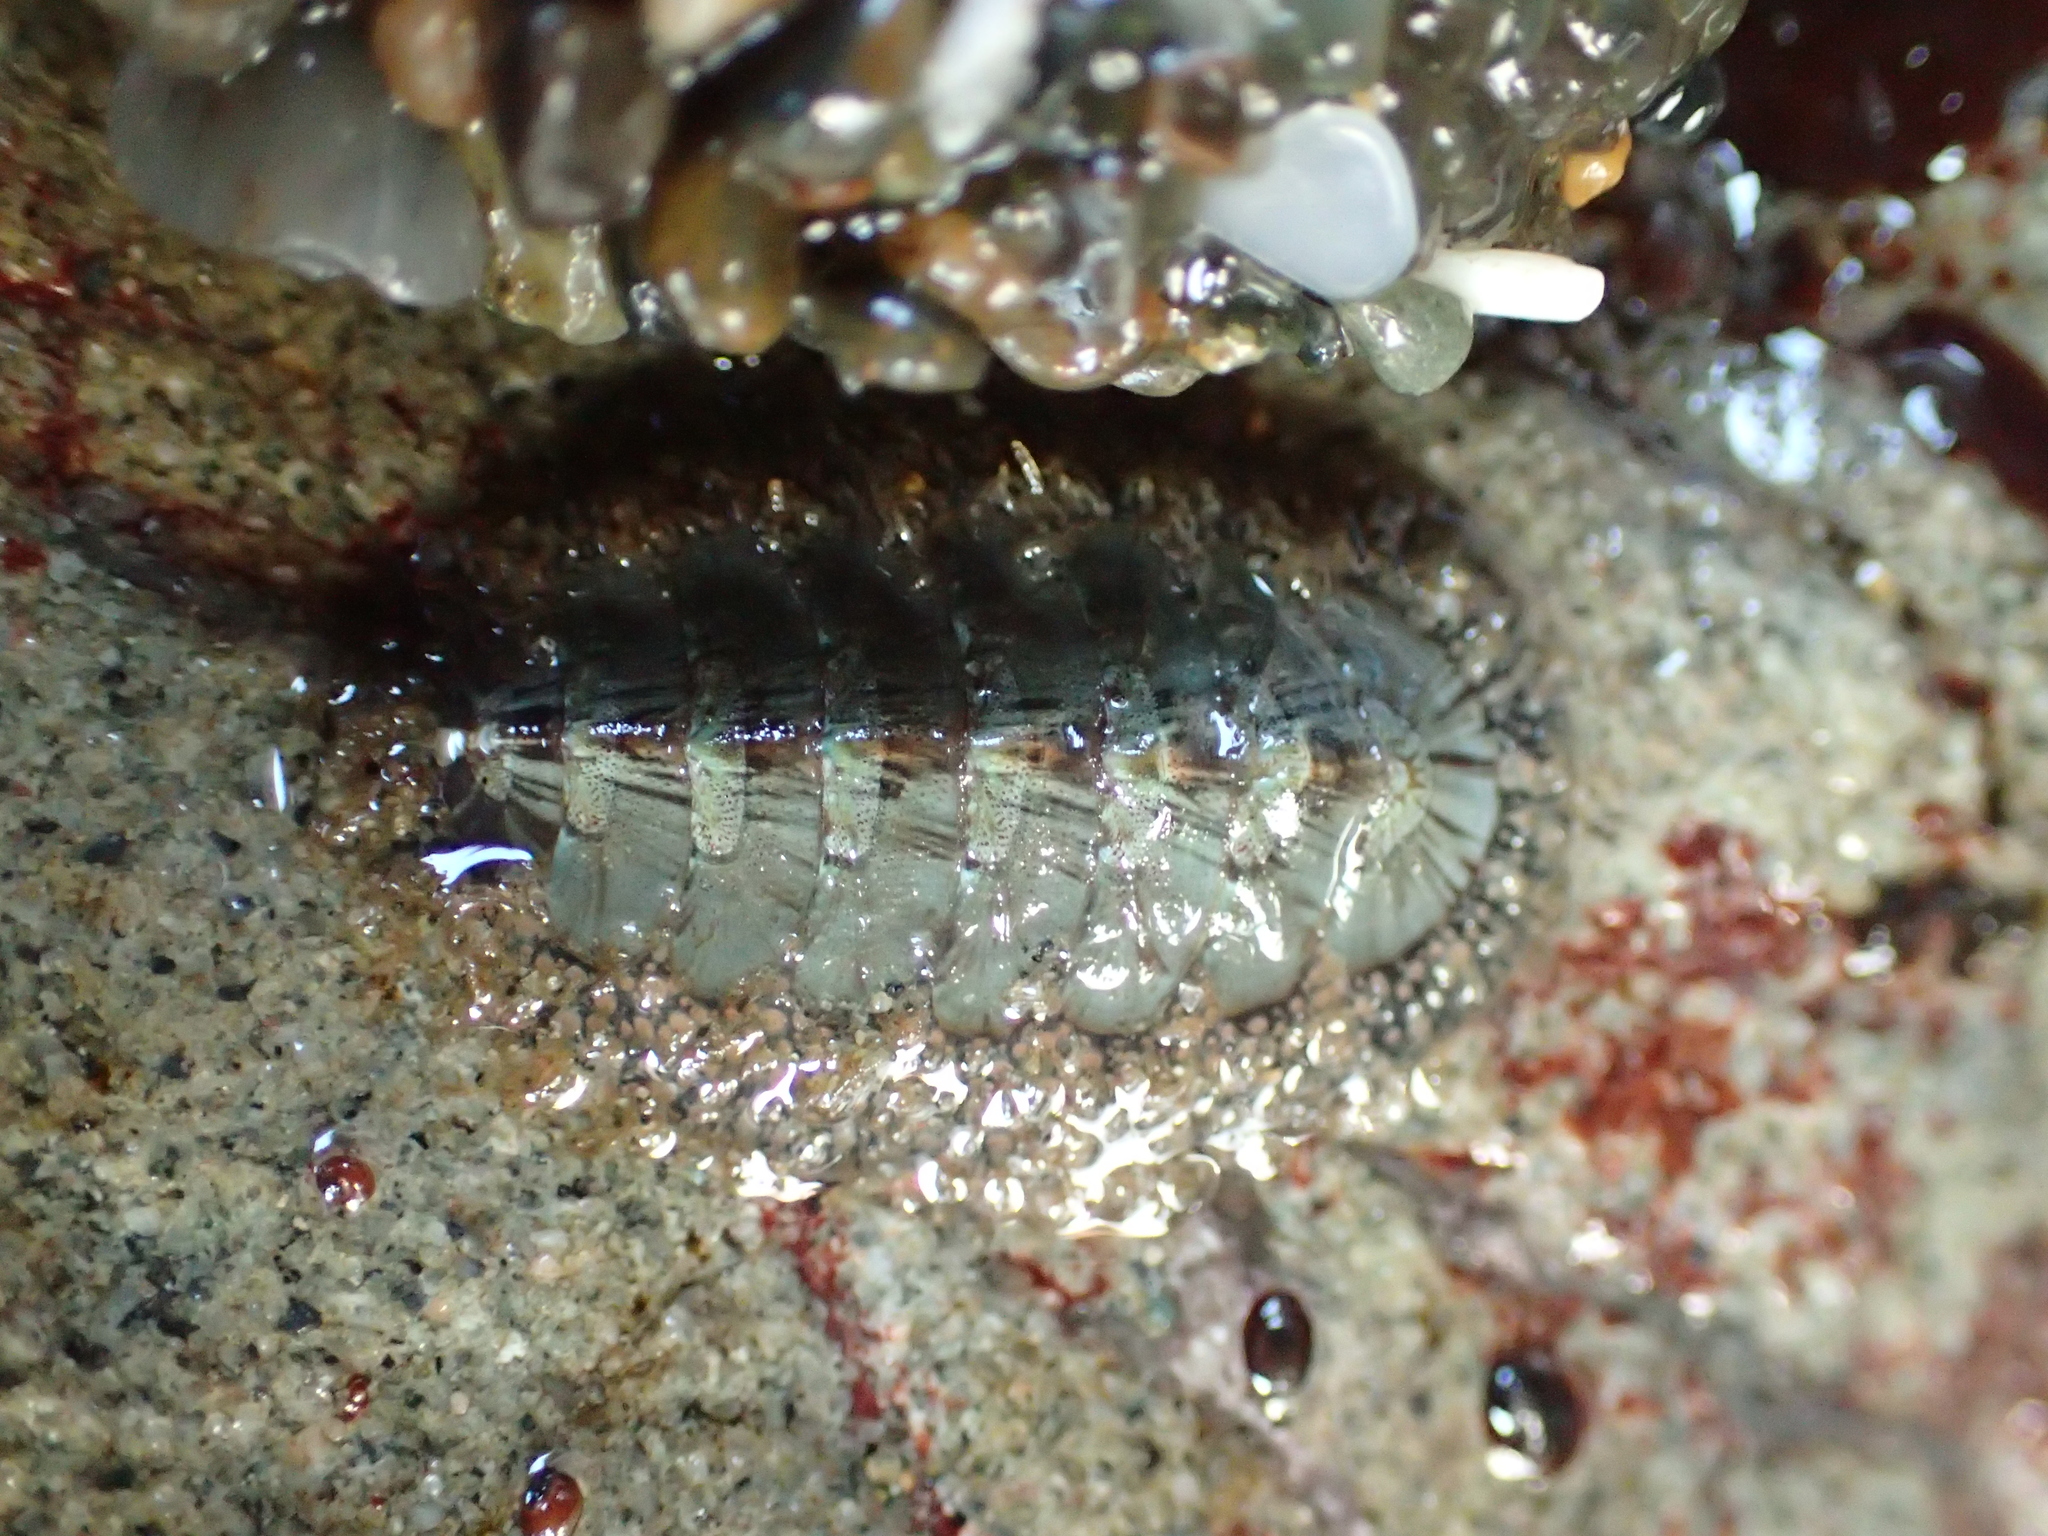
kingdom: Animalia
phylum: Mollusca
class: Polyplacophora
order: Chitonida
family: Mopaliidae
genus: Mopalia
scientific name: Mopalia lignosa
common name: Woody chiton
